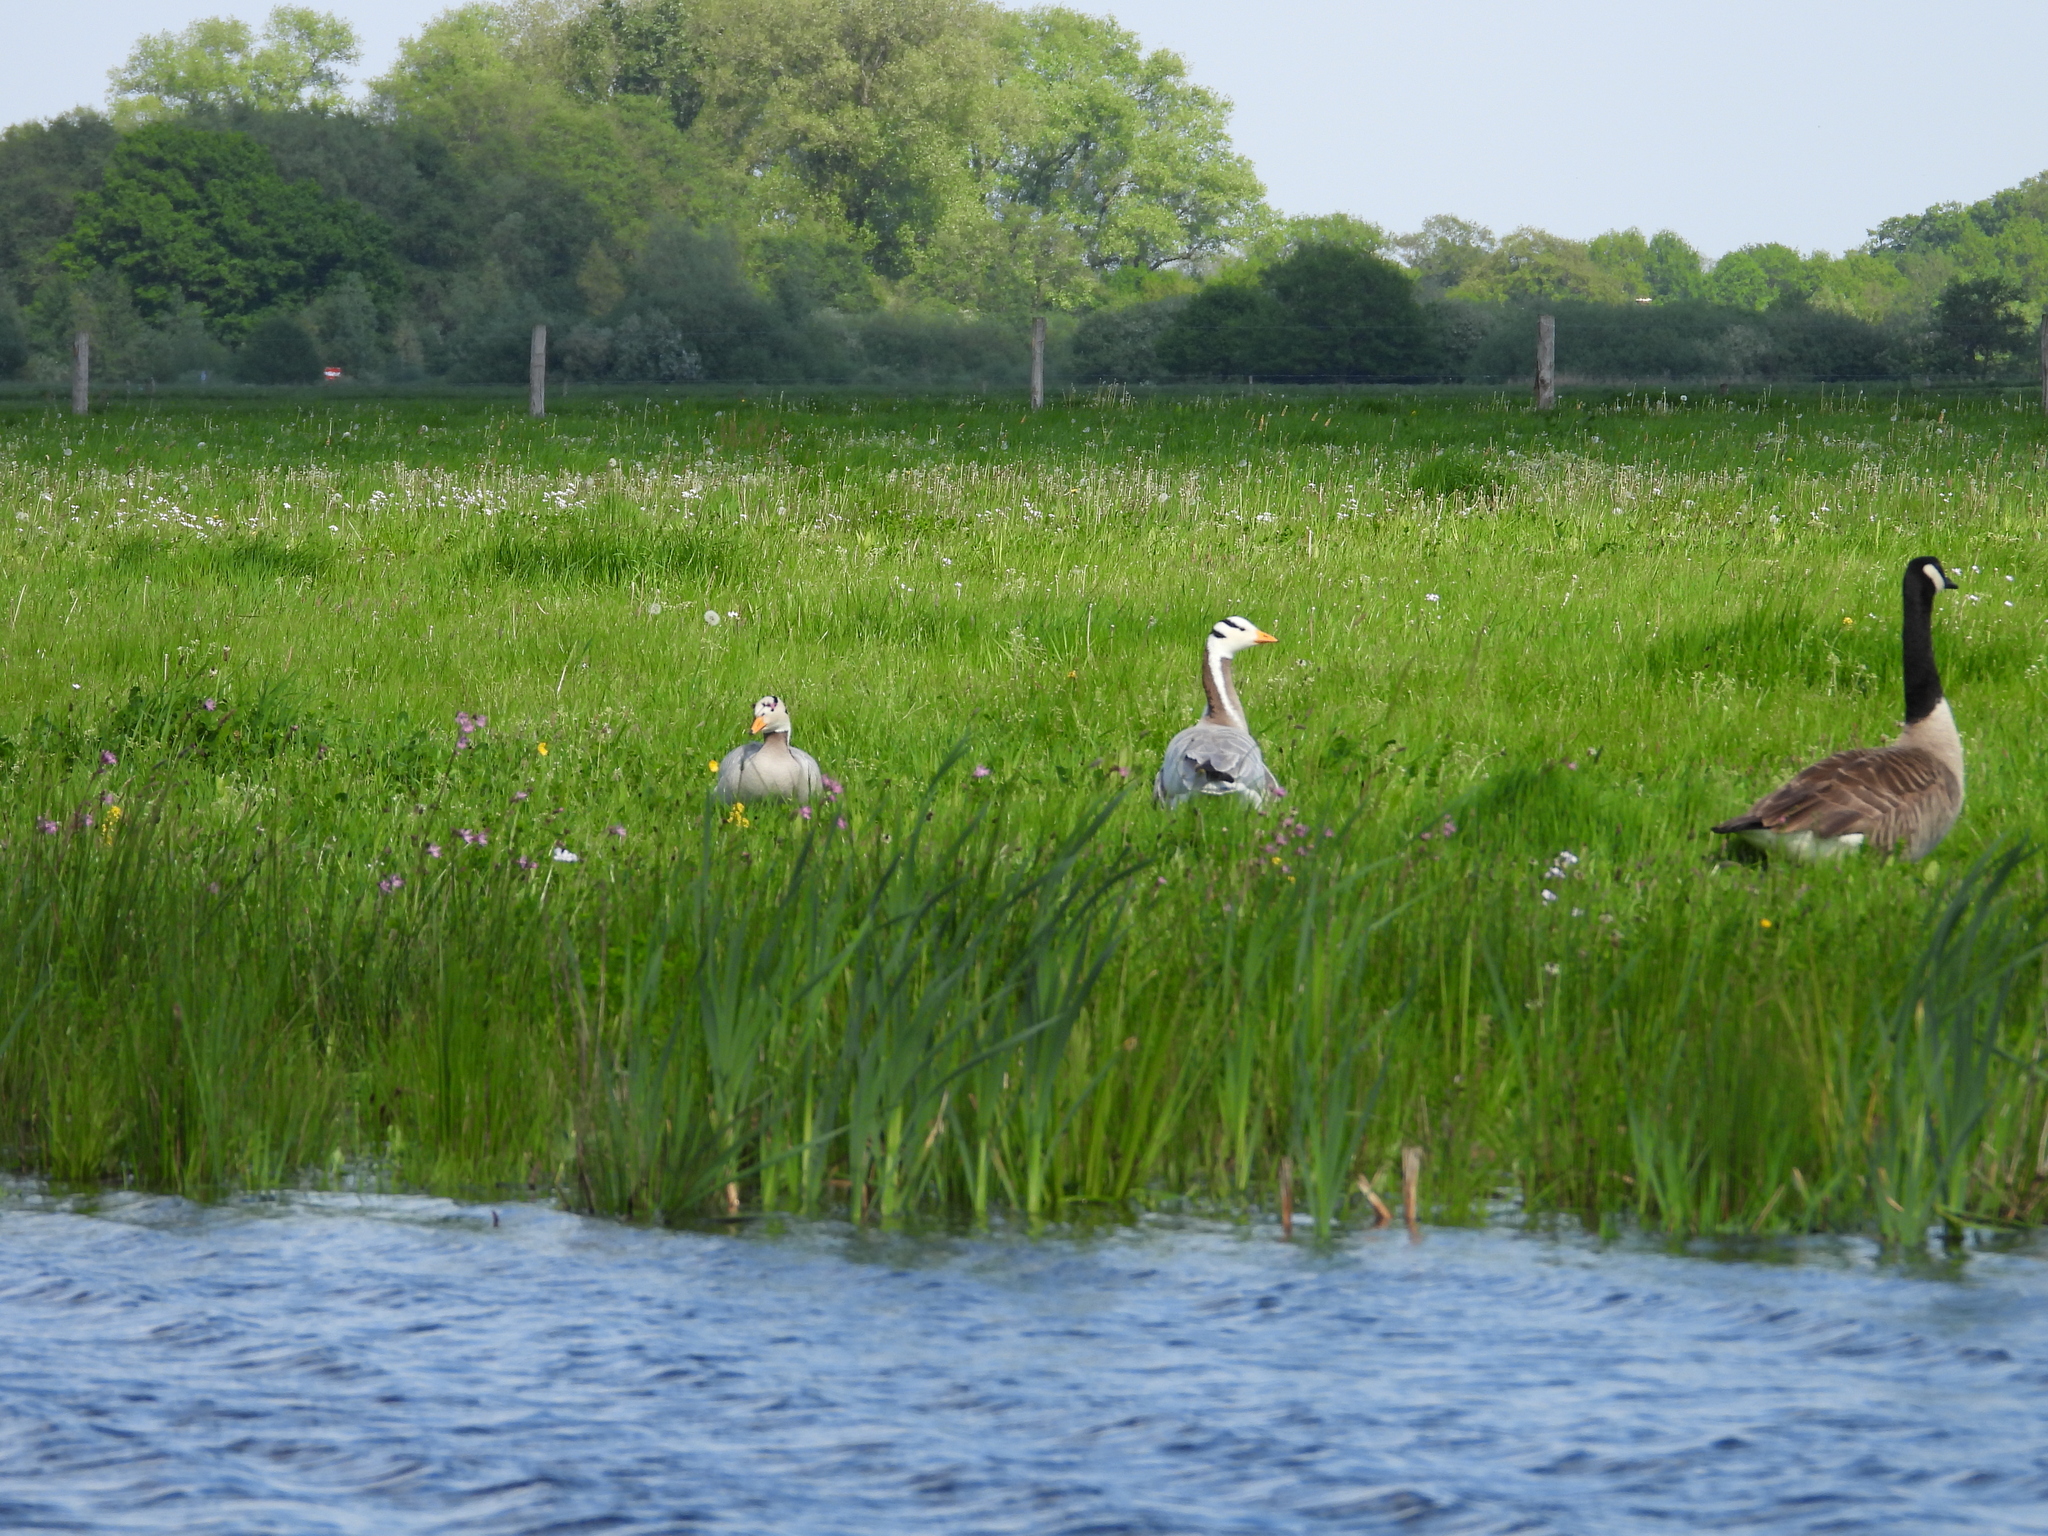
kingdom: Animalia
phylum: Chordata
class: Aves
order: Anseriformes
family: Anatidae
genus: Anser
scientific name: Anser indicus
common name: Bar-headed goose
